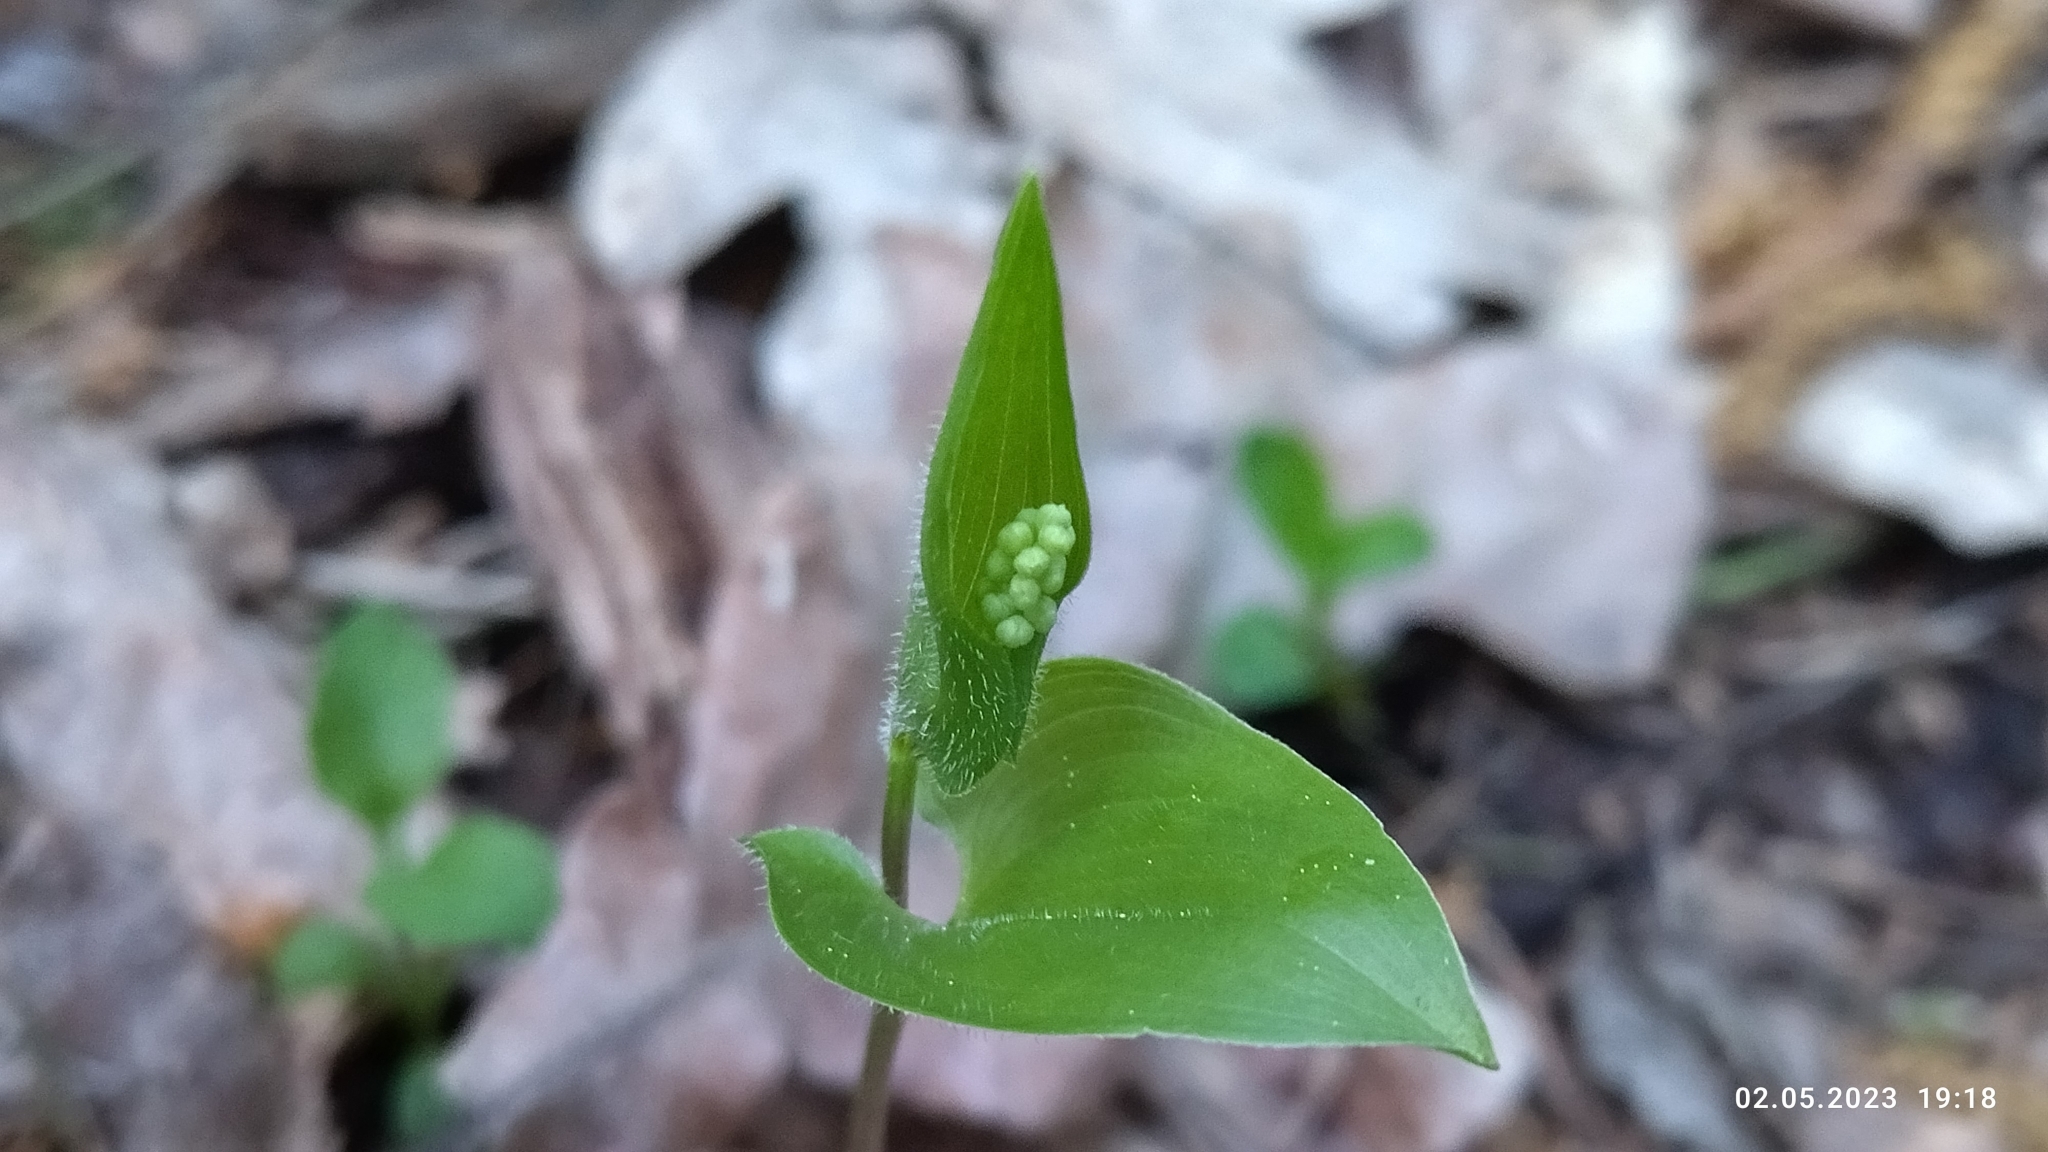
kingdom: Plantae
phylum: Tracheophyta
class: Liliopsida
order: Asparagales
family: Asparagaceae
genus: Maianthemum
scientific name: Maianthemum bifolium
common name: May lily
